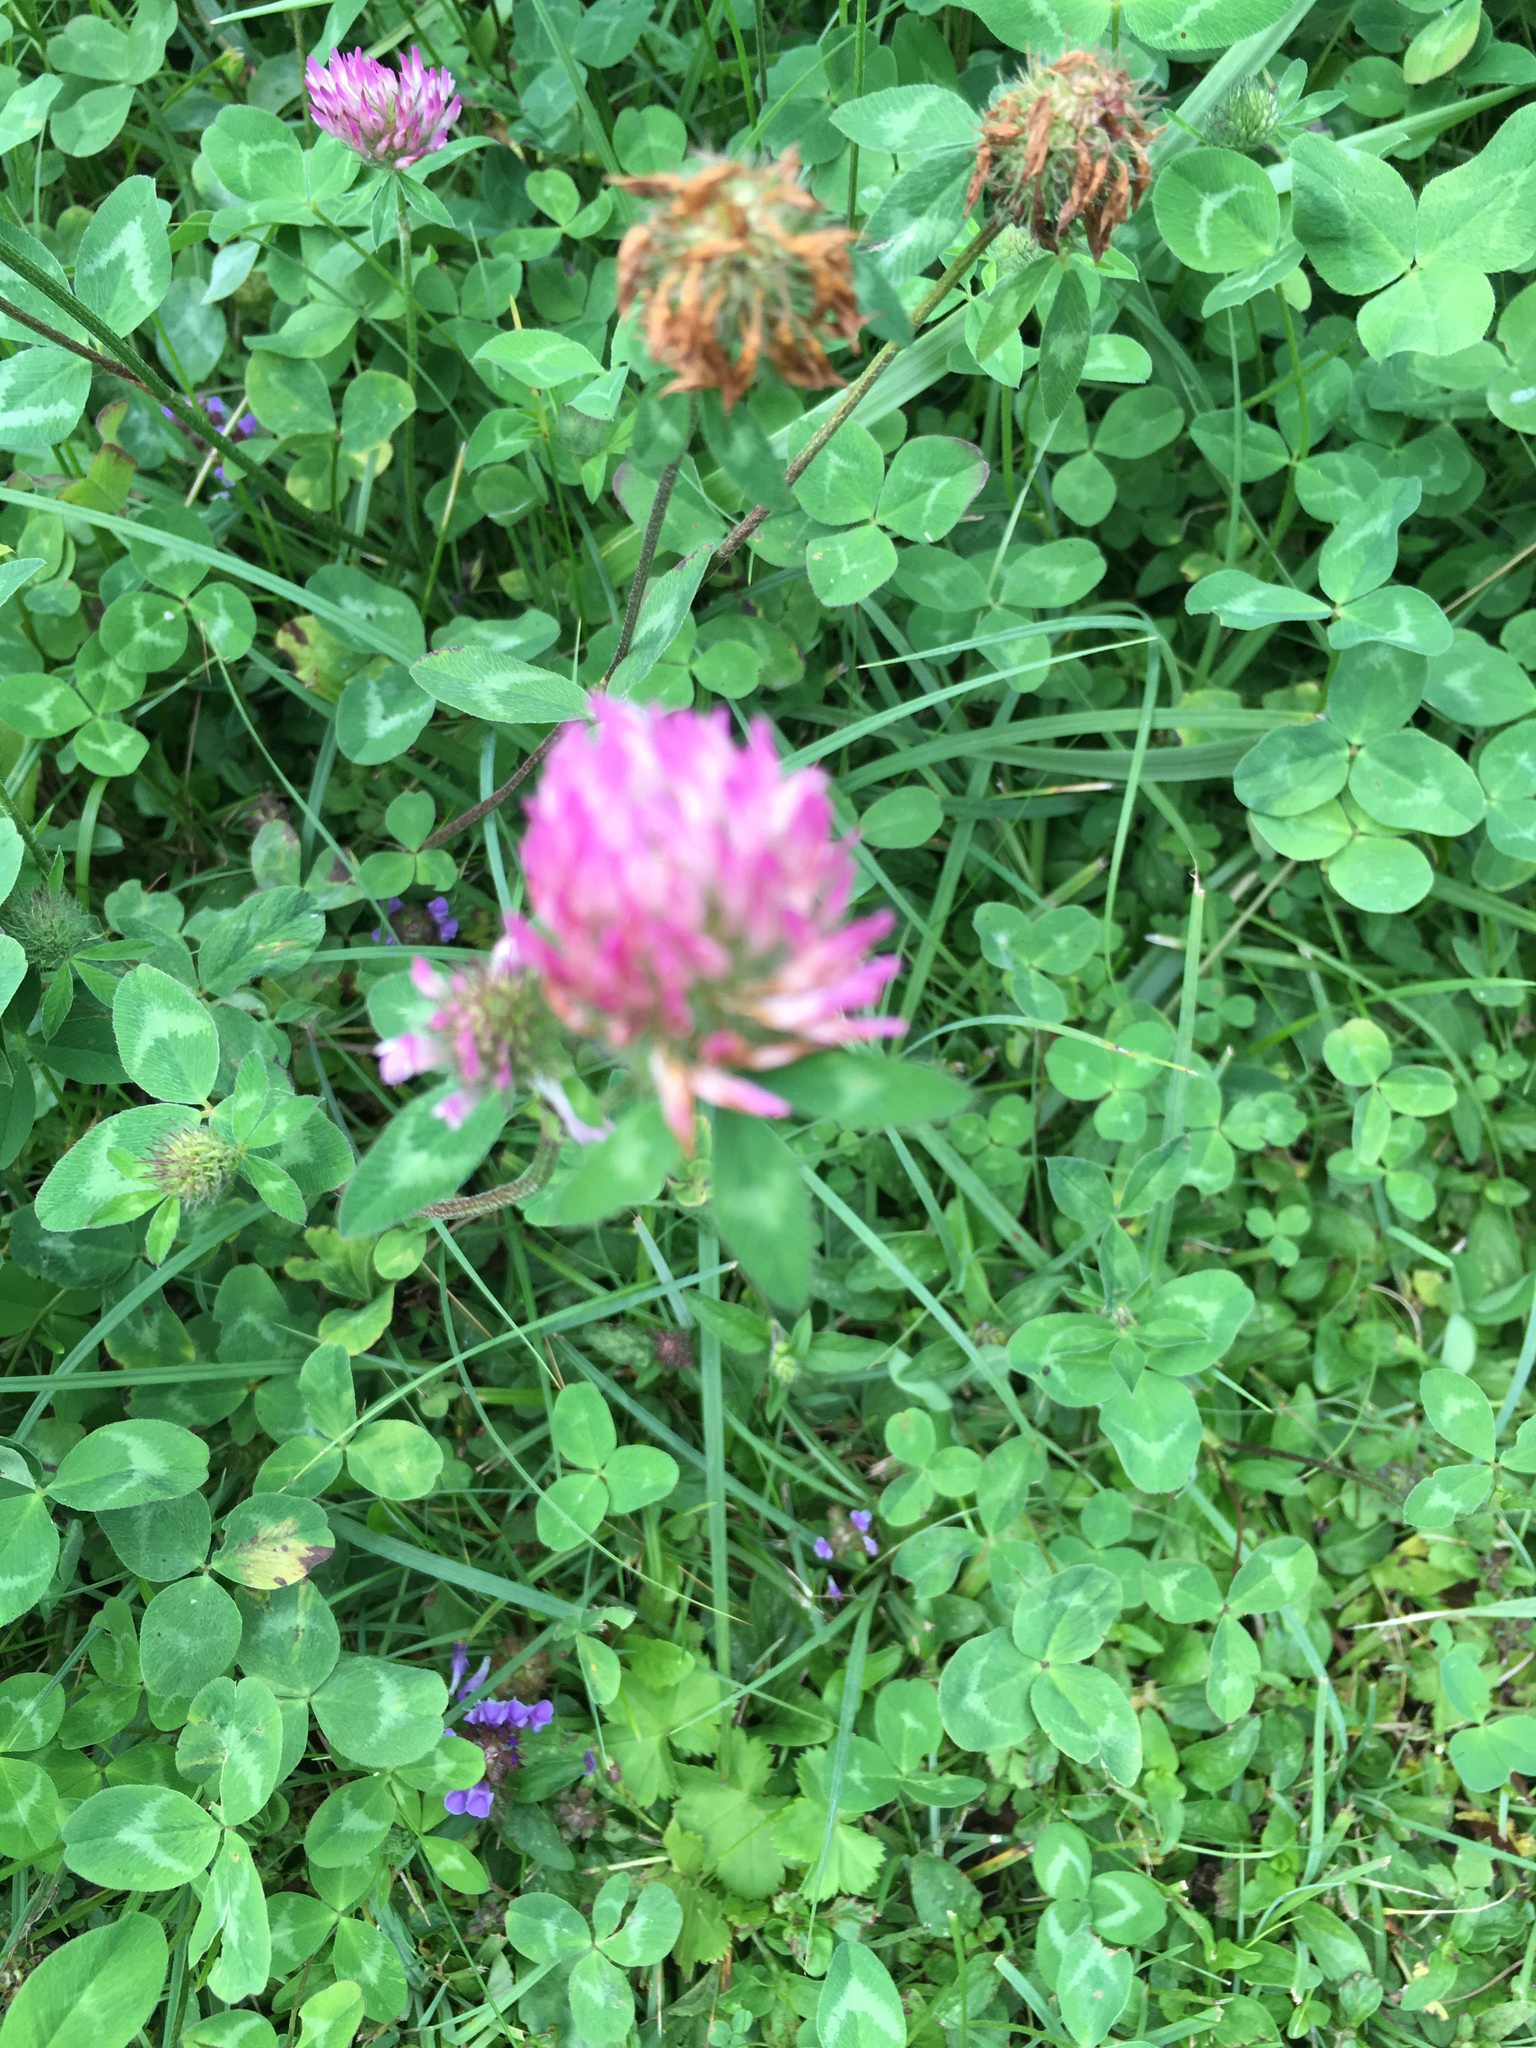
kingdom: Plantae
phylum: Tracheophyta
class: Magnoliopsida
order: Fabales
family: Fabaceae
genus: Trifolium
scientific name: Trifolium pratense
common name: Red clover
